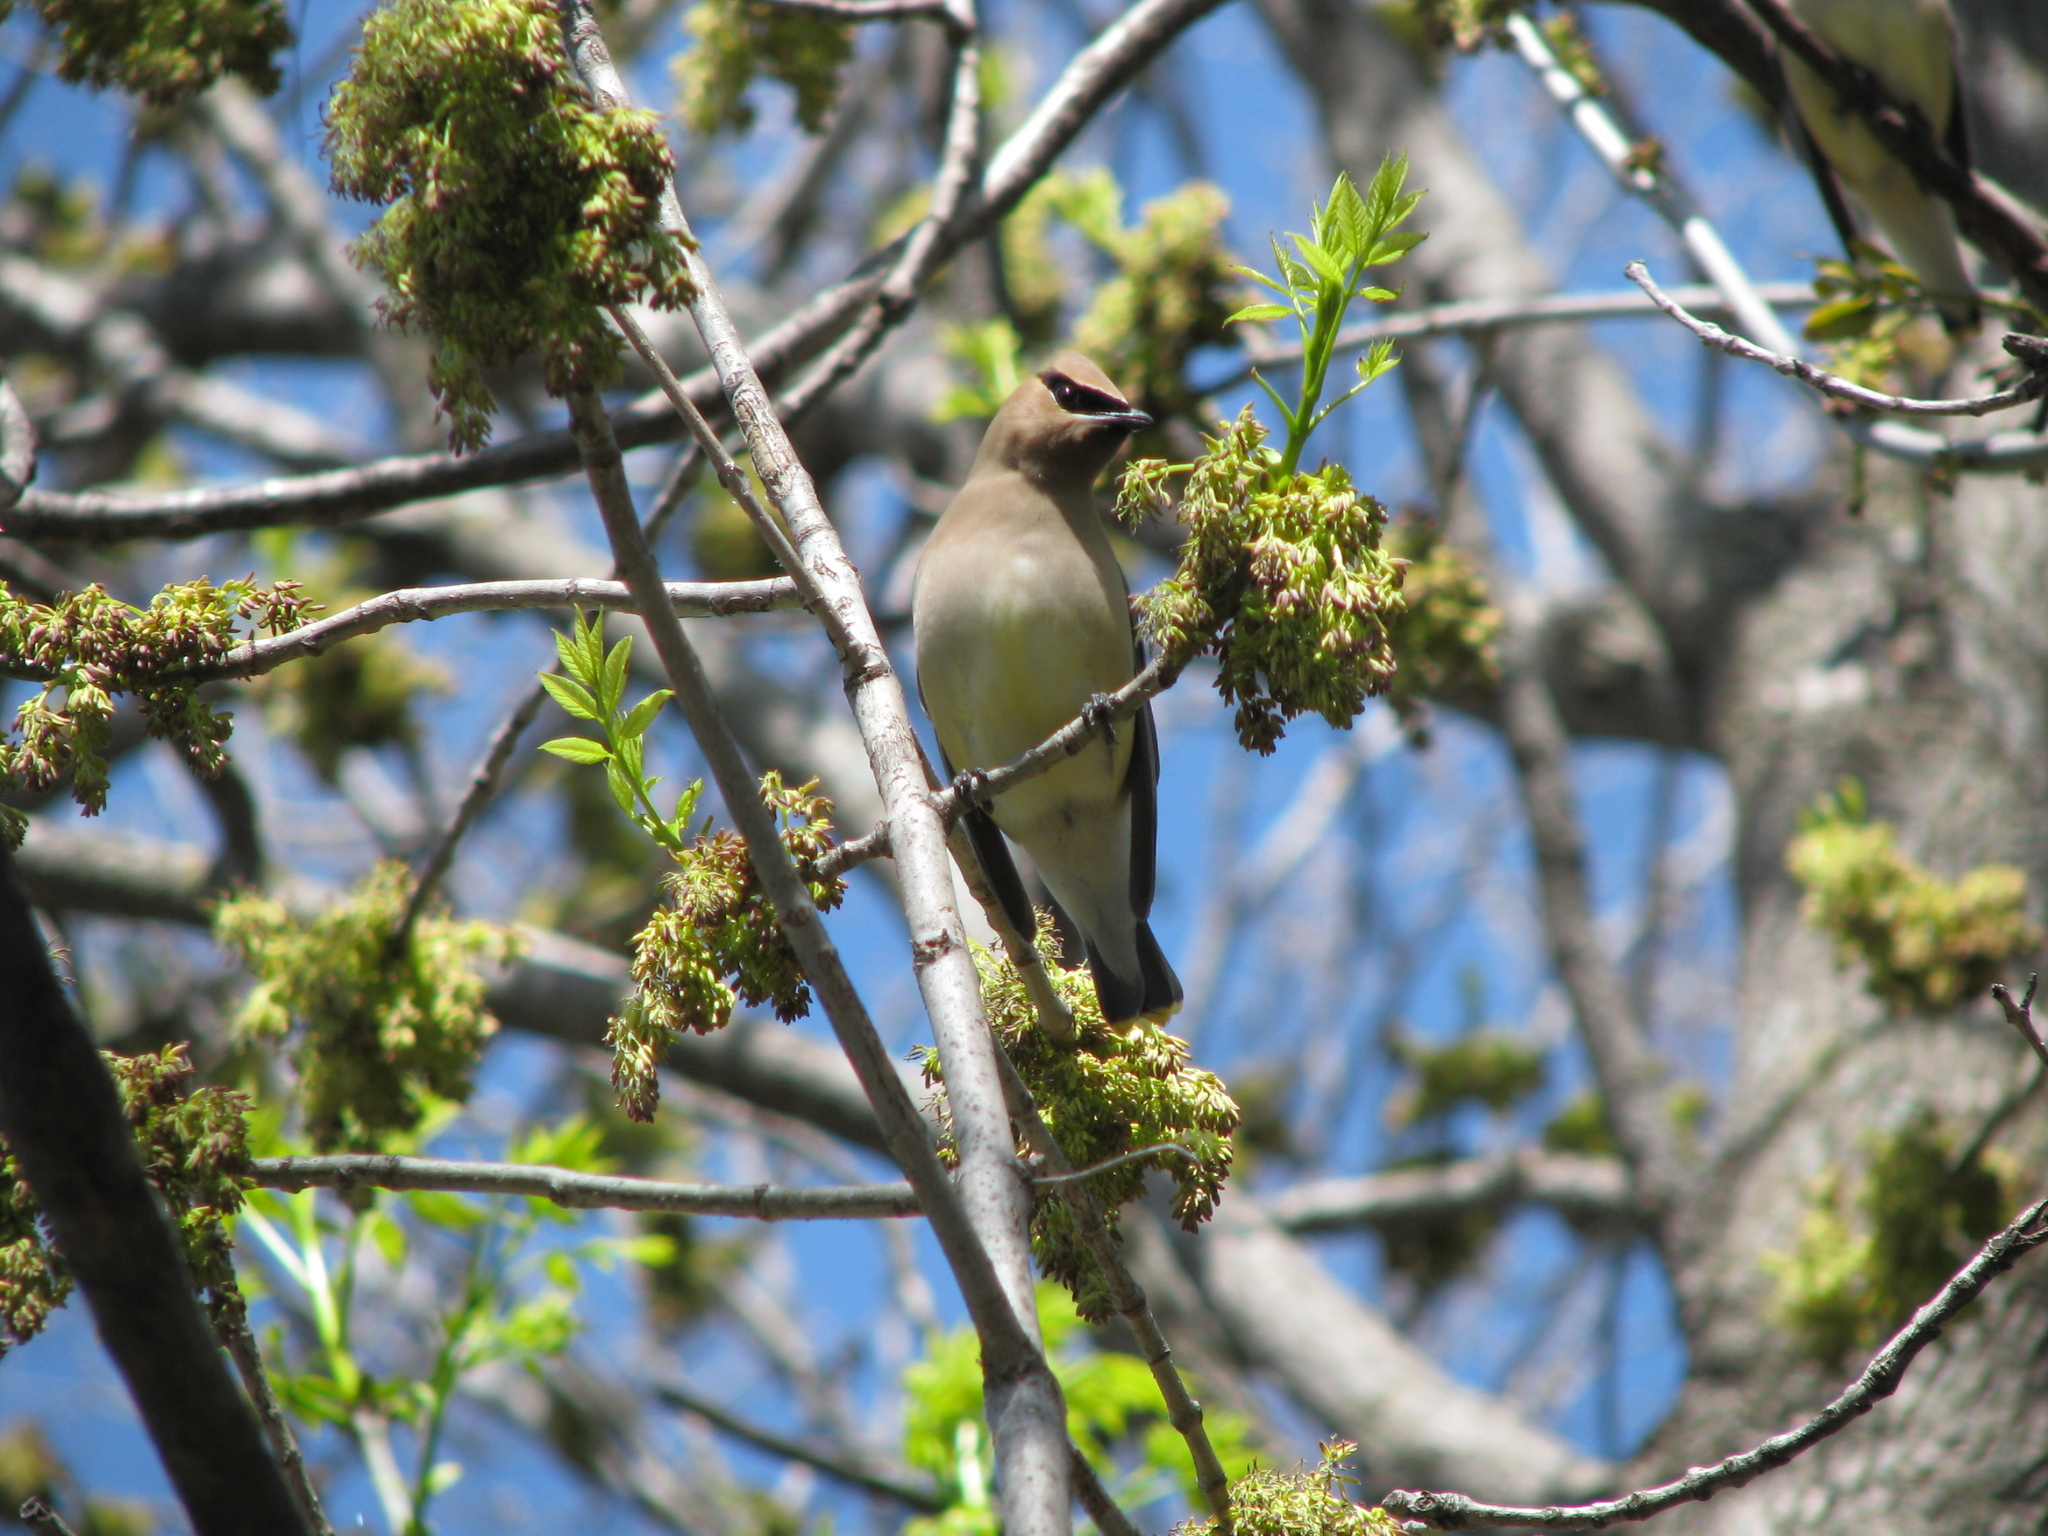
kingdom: Animalia
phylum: Chordata
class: Aves
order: Passeriformes
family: Bombycillidae
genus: Bombycilla
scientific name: Bombycilla cedrorum
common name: Cedar waxwing
